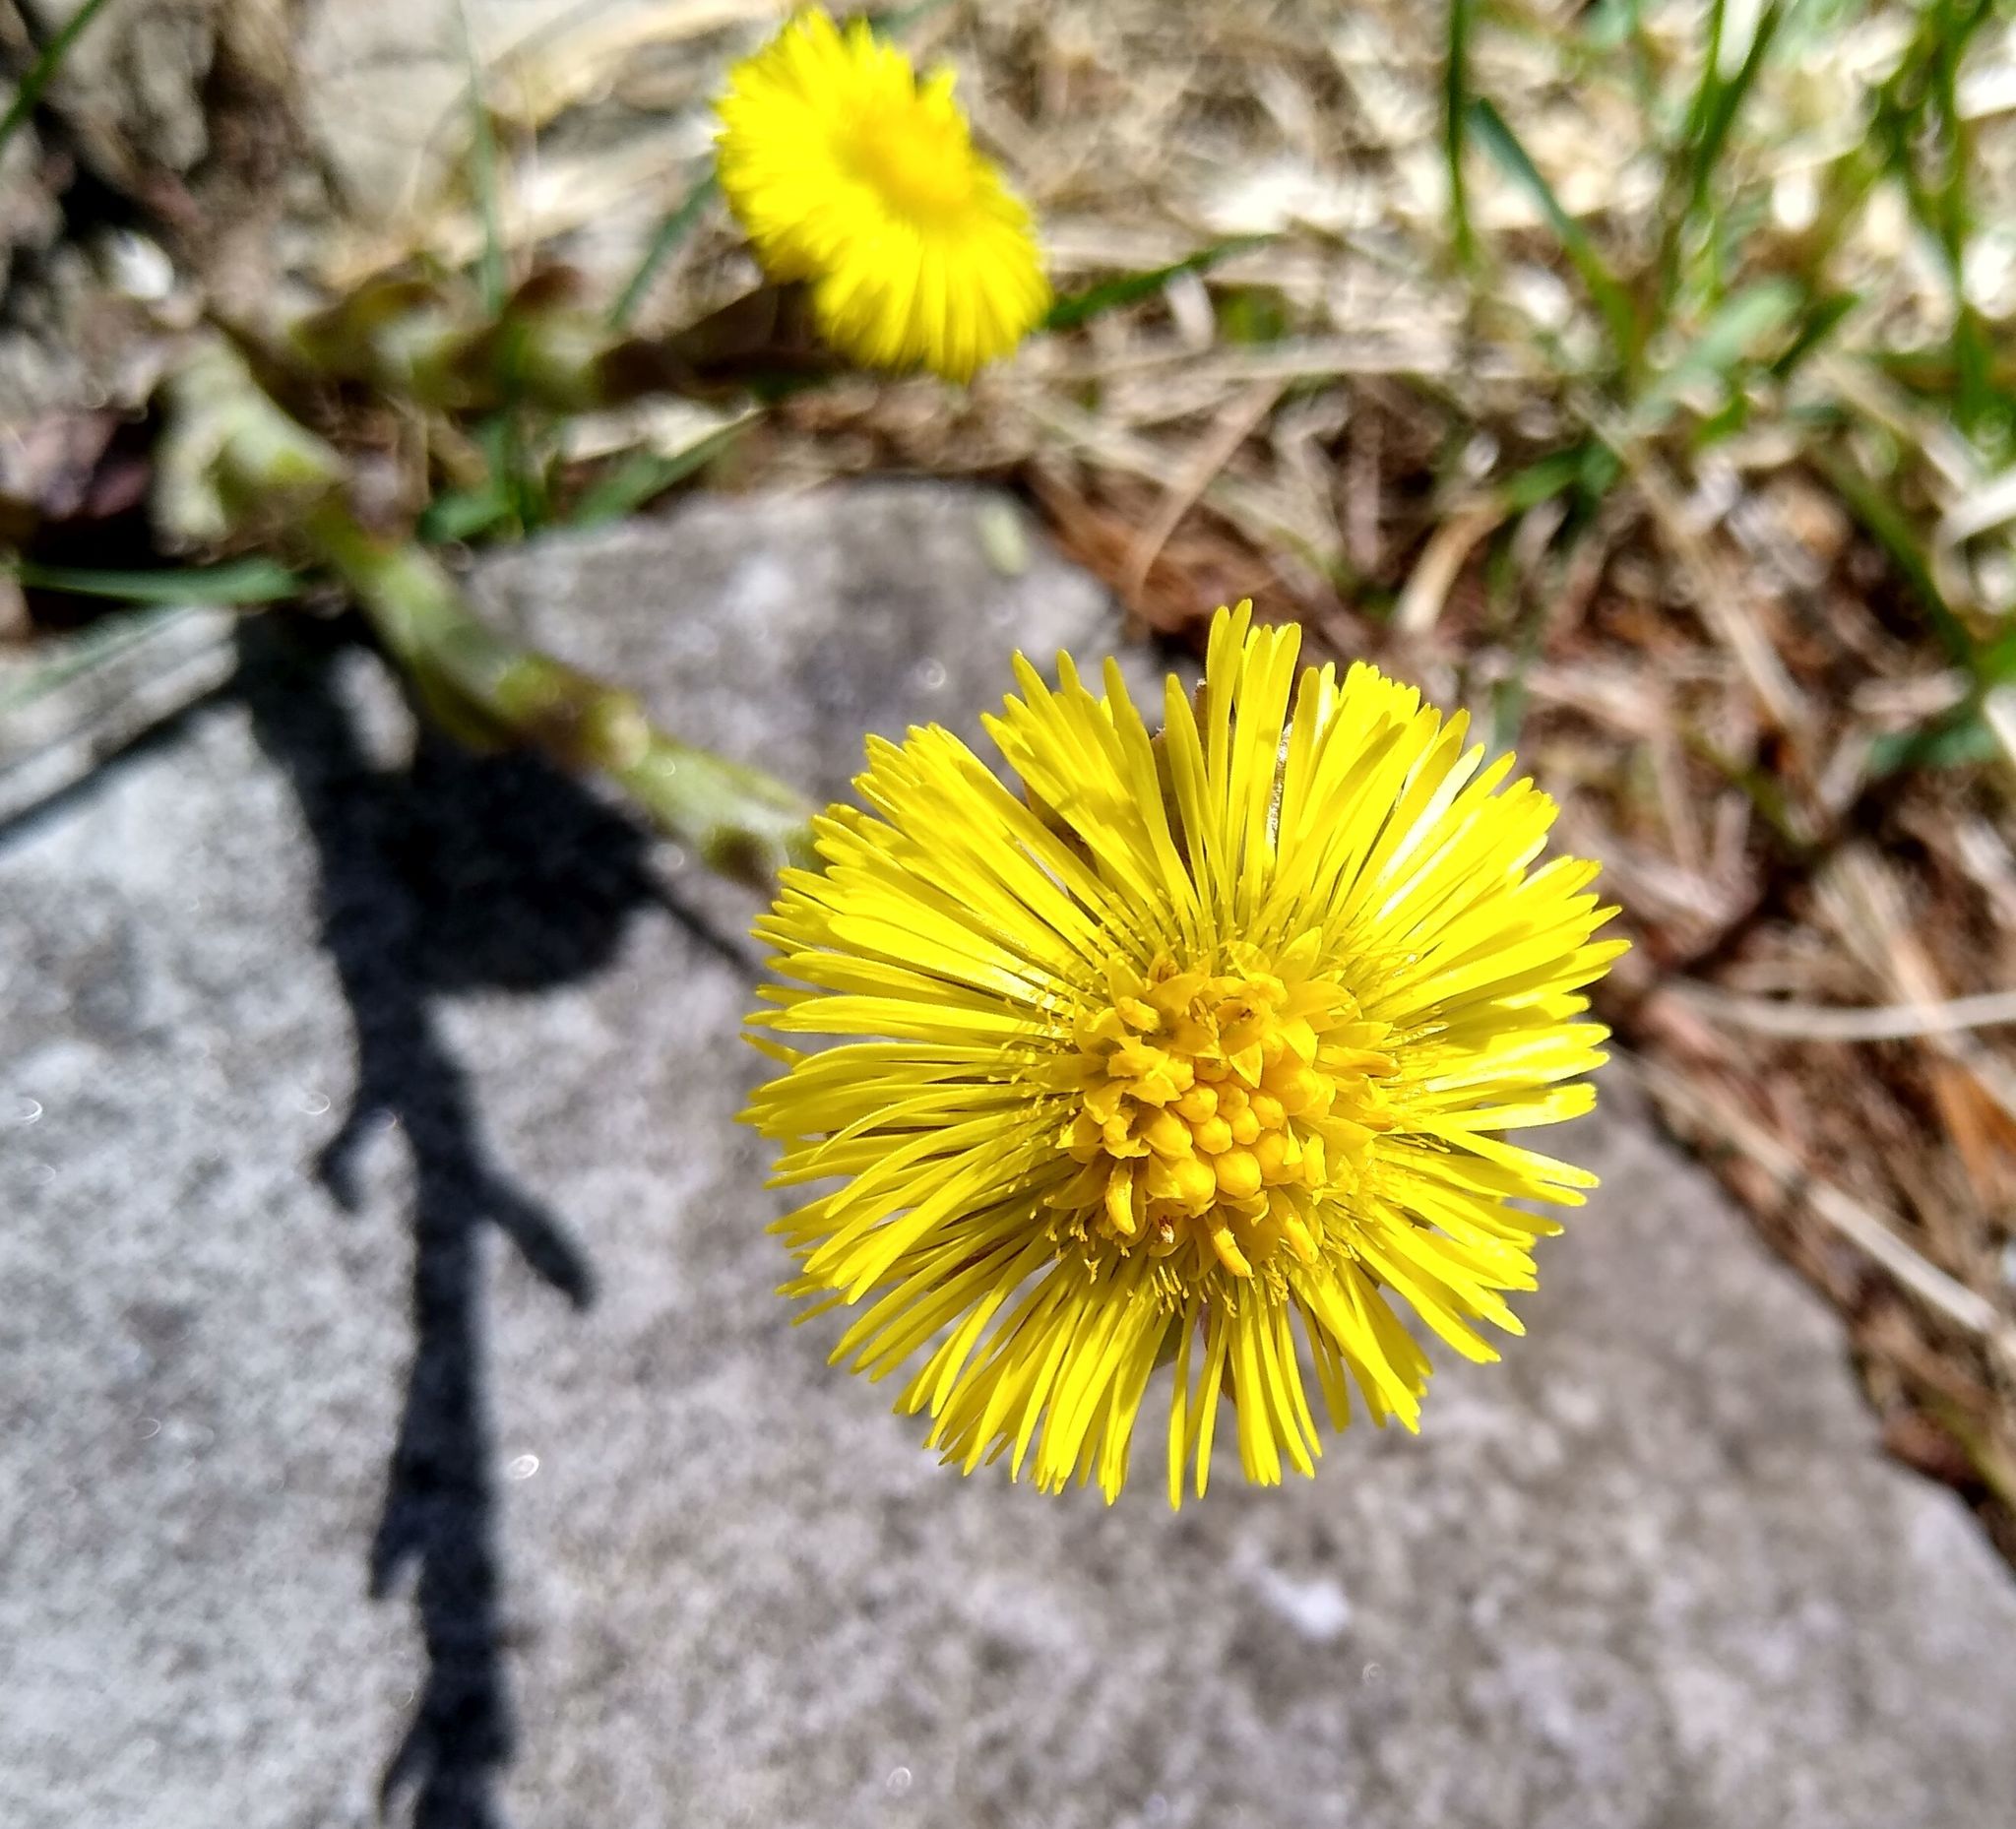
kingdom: Plantae
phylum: Tracheophyta
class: Magnoliopsida
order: Asterales
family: Asteraceae
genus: Tussilago
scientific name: Tussilago farfara
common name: Coltsfoot
